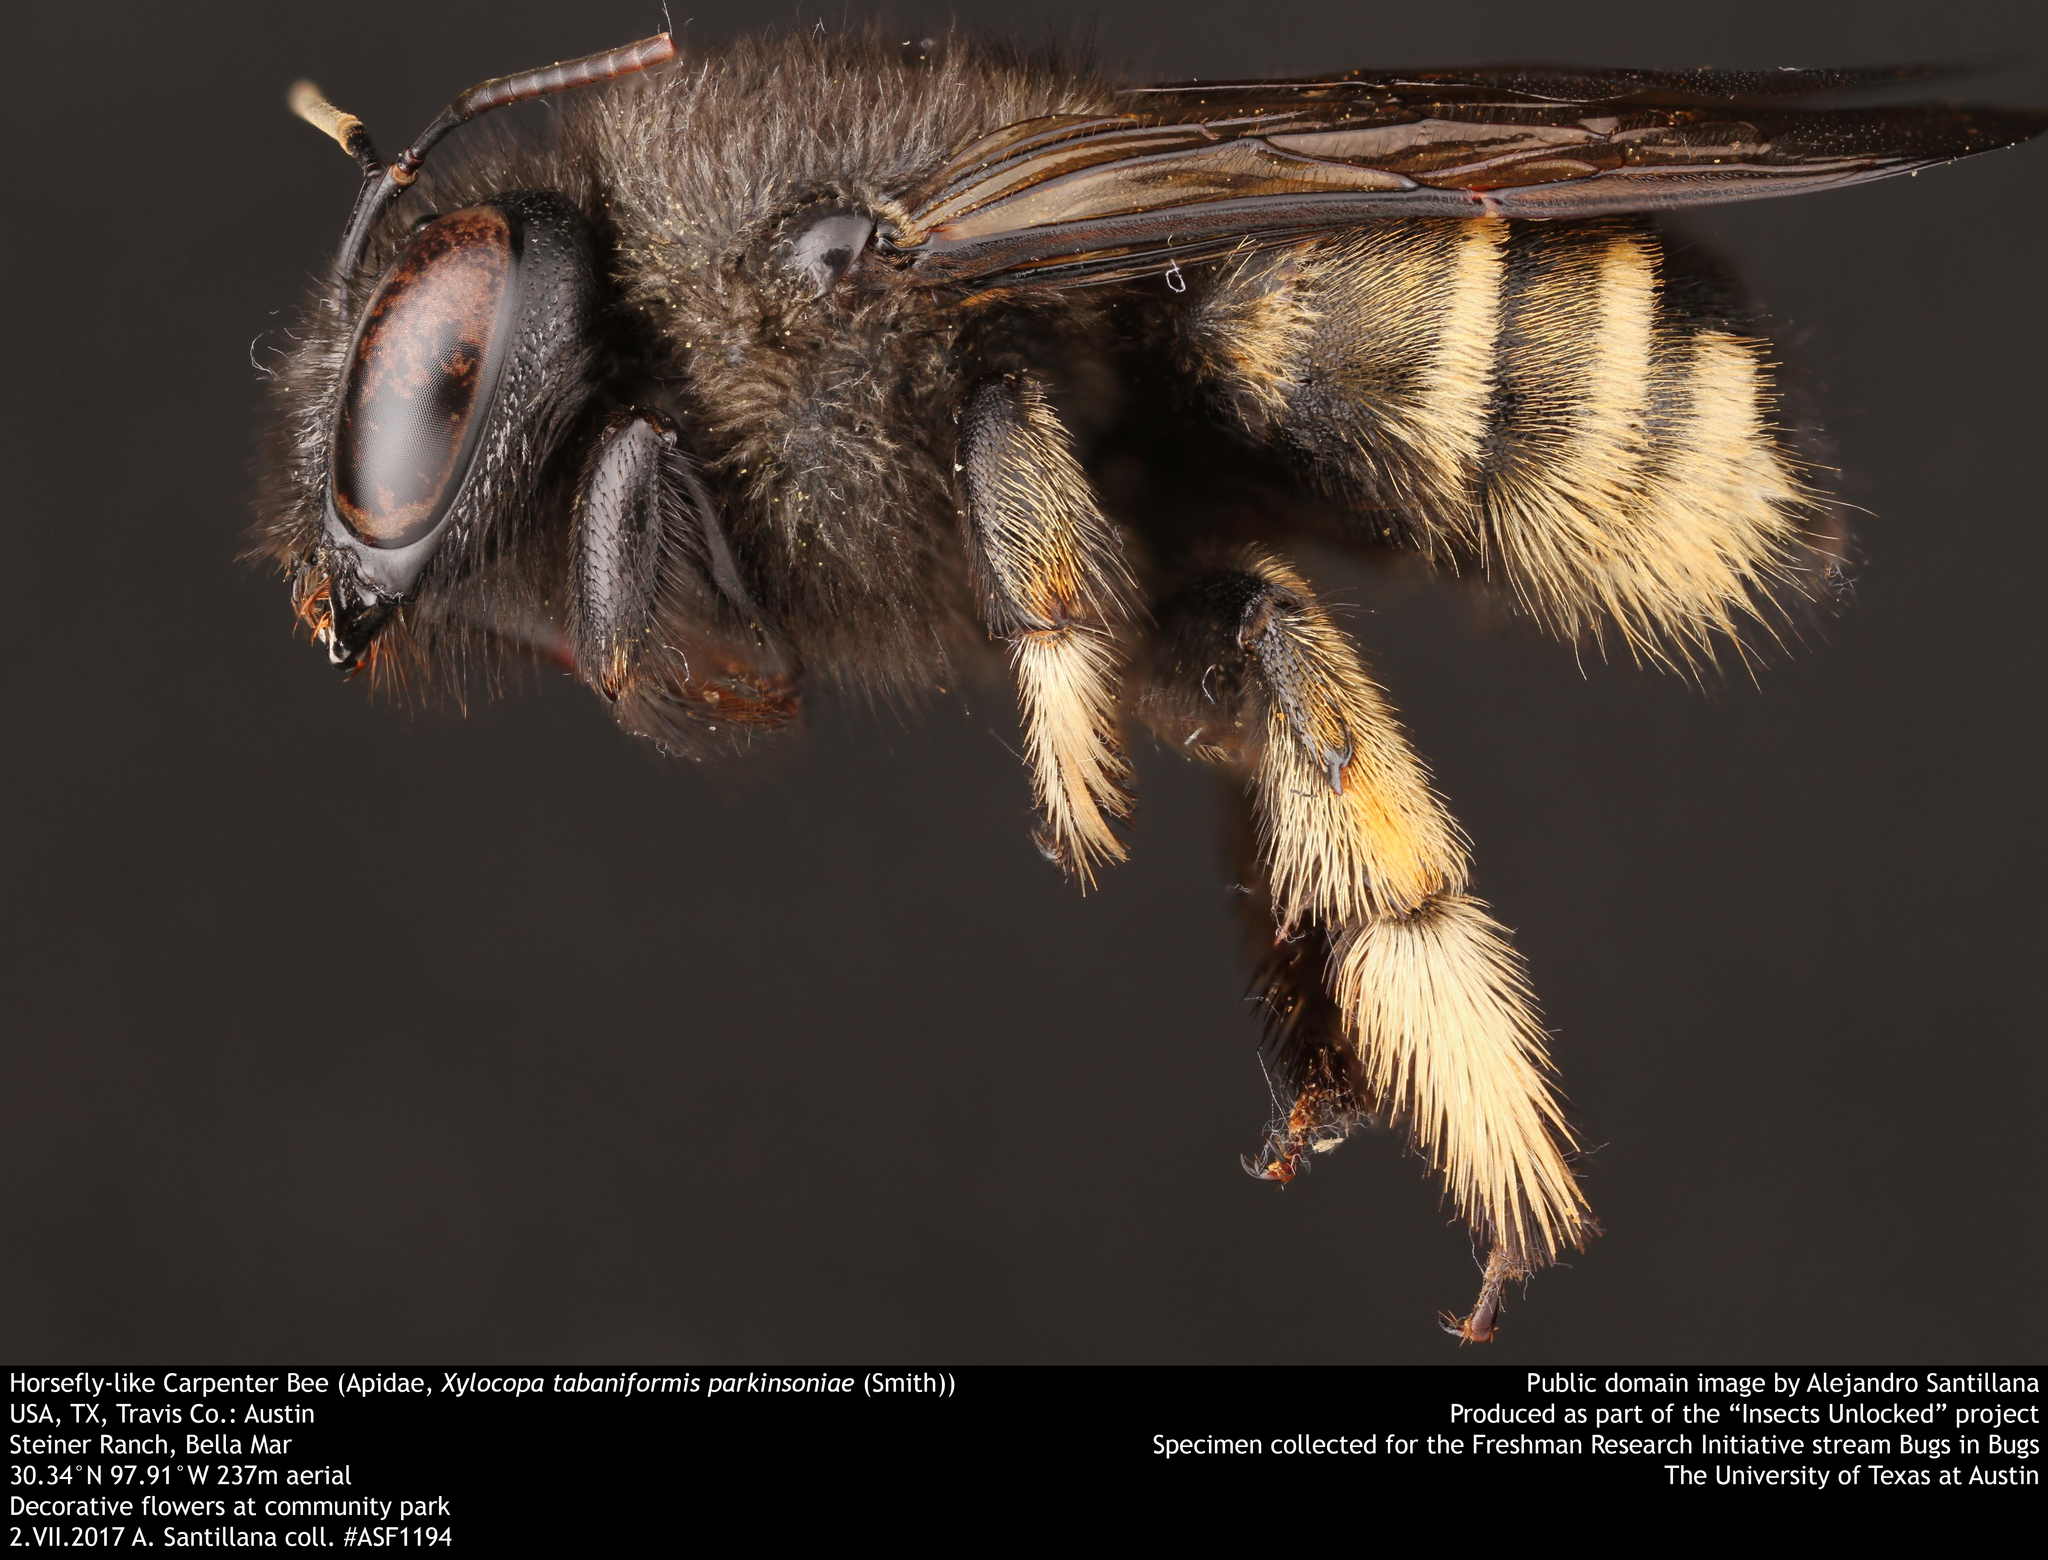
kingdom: Animalia
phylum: Arthropoda
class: Insecta
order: Hymenoptera
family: Apidae
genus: Xylocopa
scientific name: Xylocopa tabaniformis
